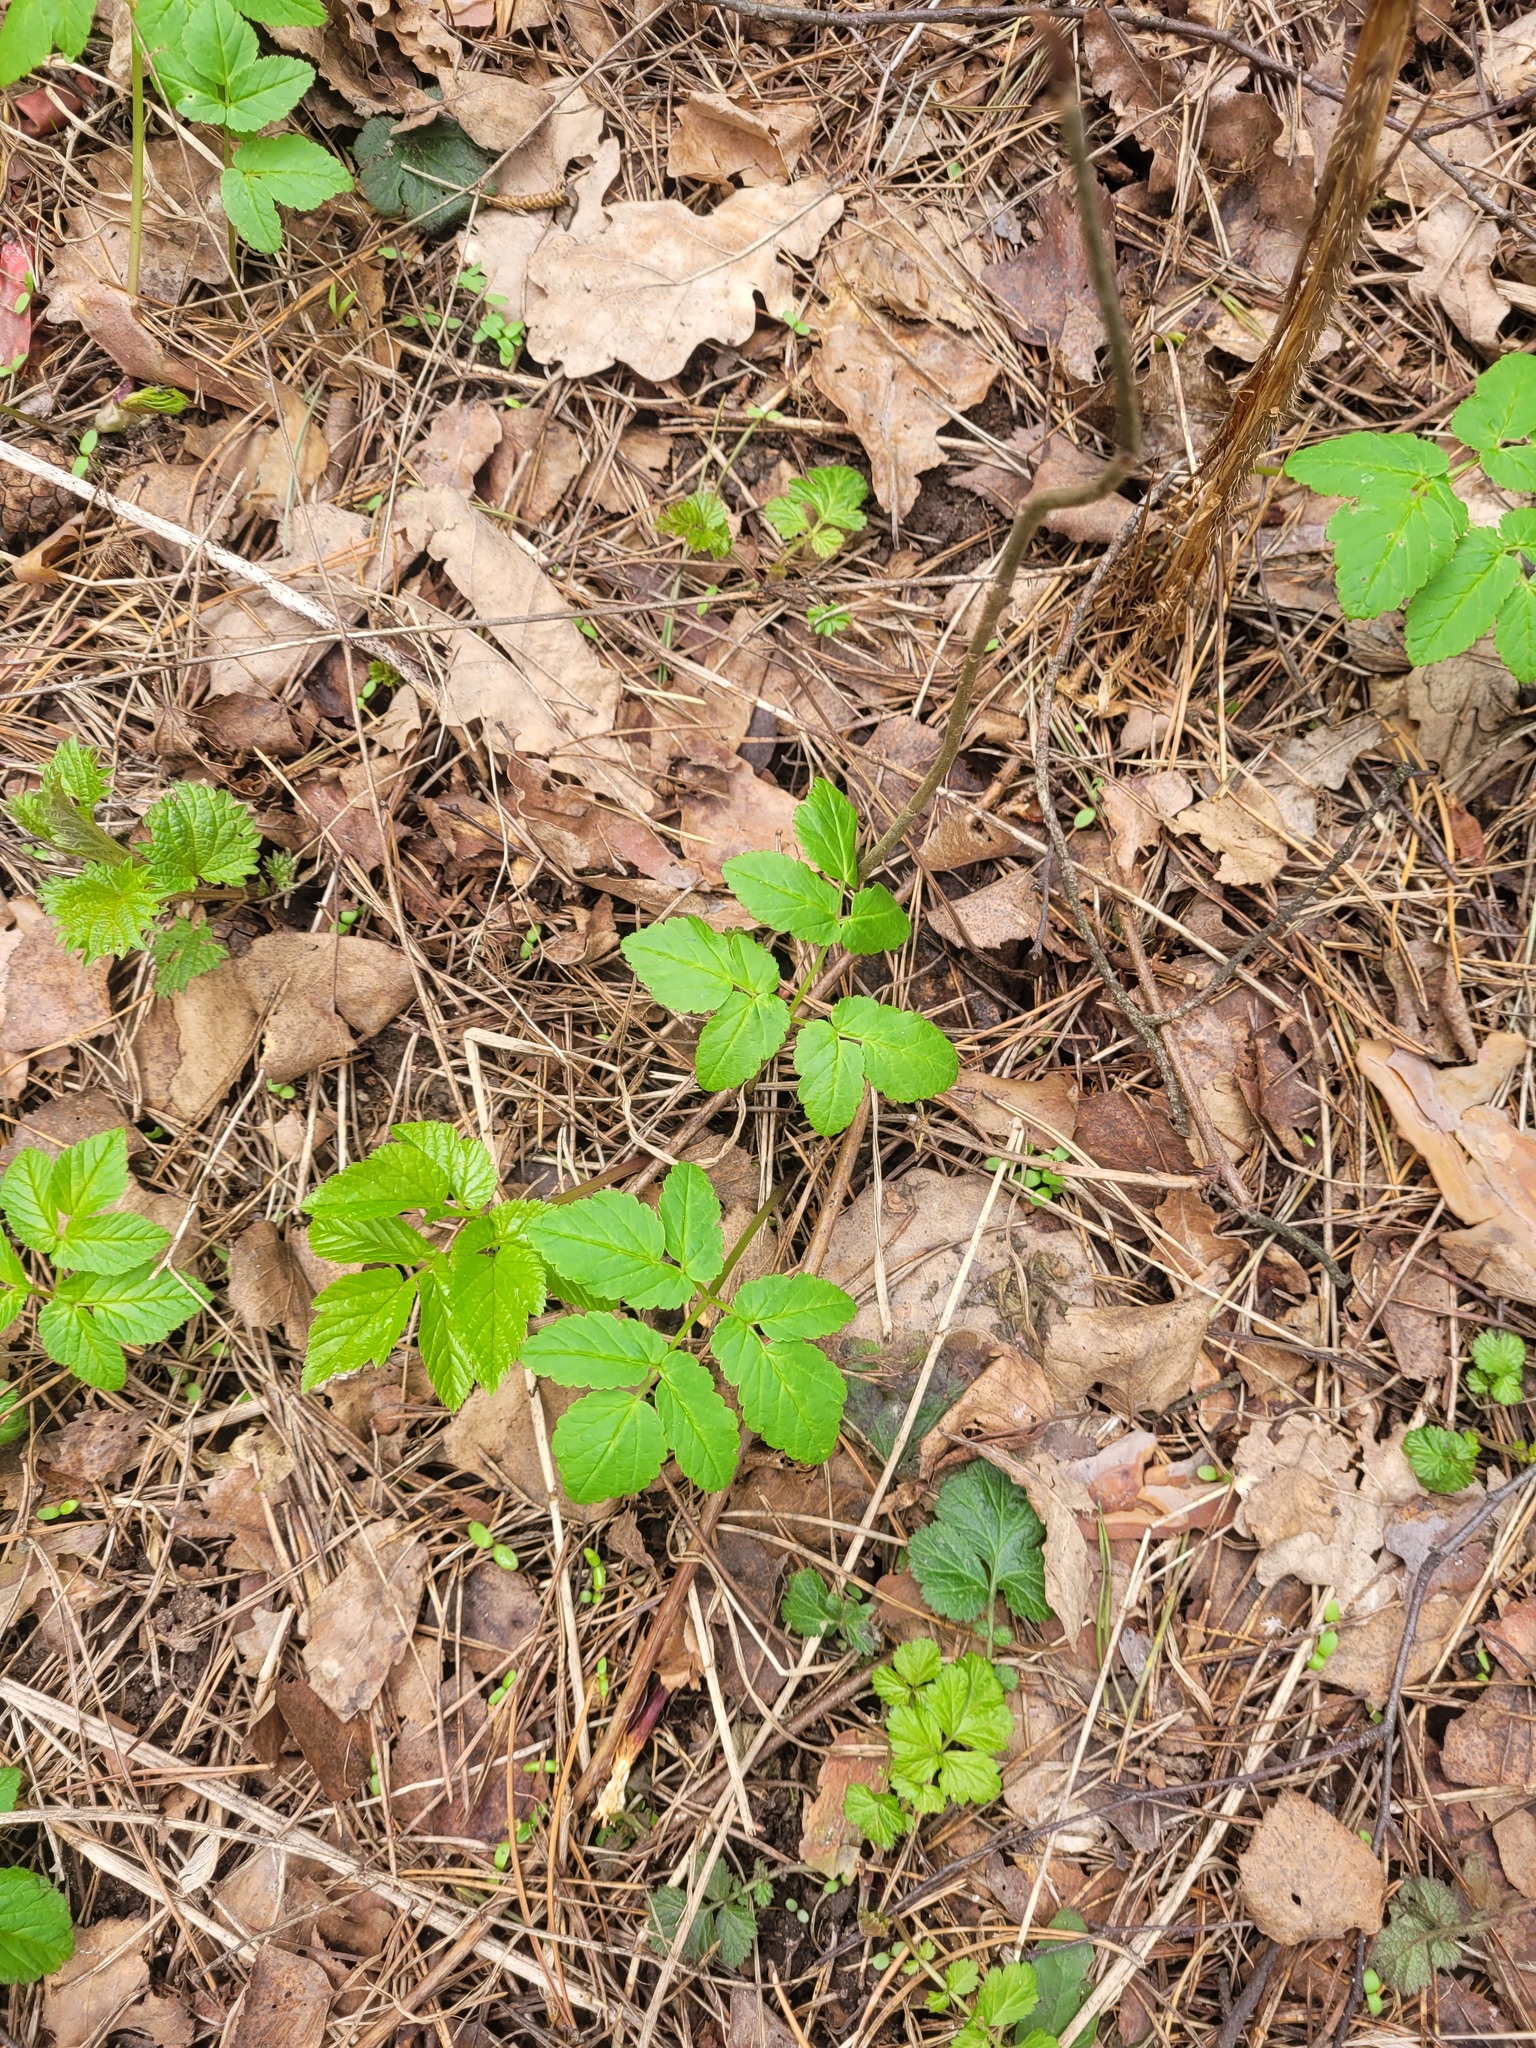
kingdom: Plantae
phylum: Tracheophyta
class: Magnoliopsida
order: Apiales
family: Apiaceae
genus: Aegopodium
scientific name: Aegopodium podagraria
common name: Ground-elder
